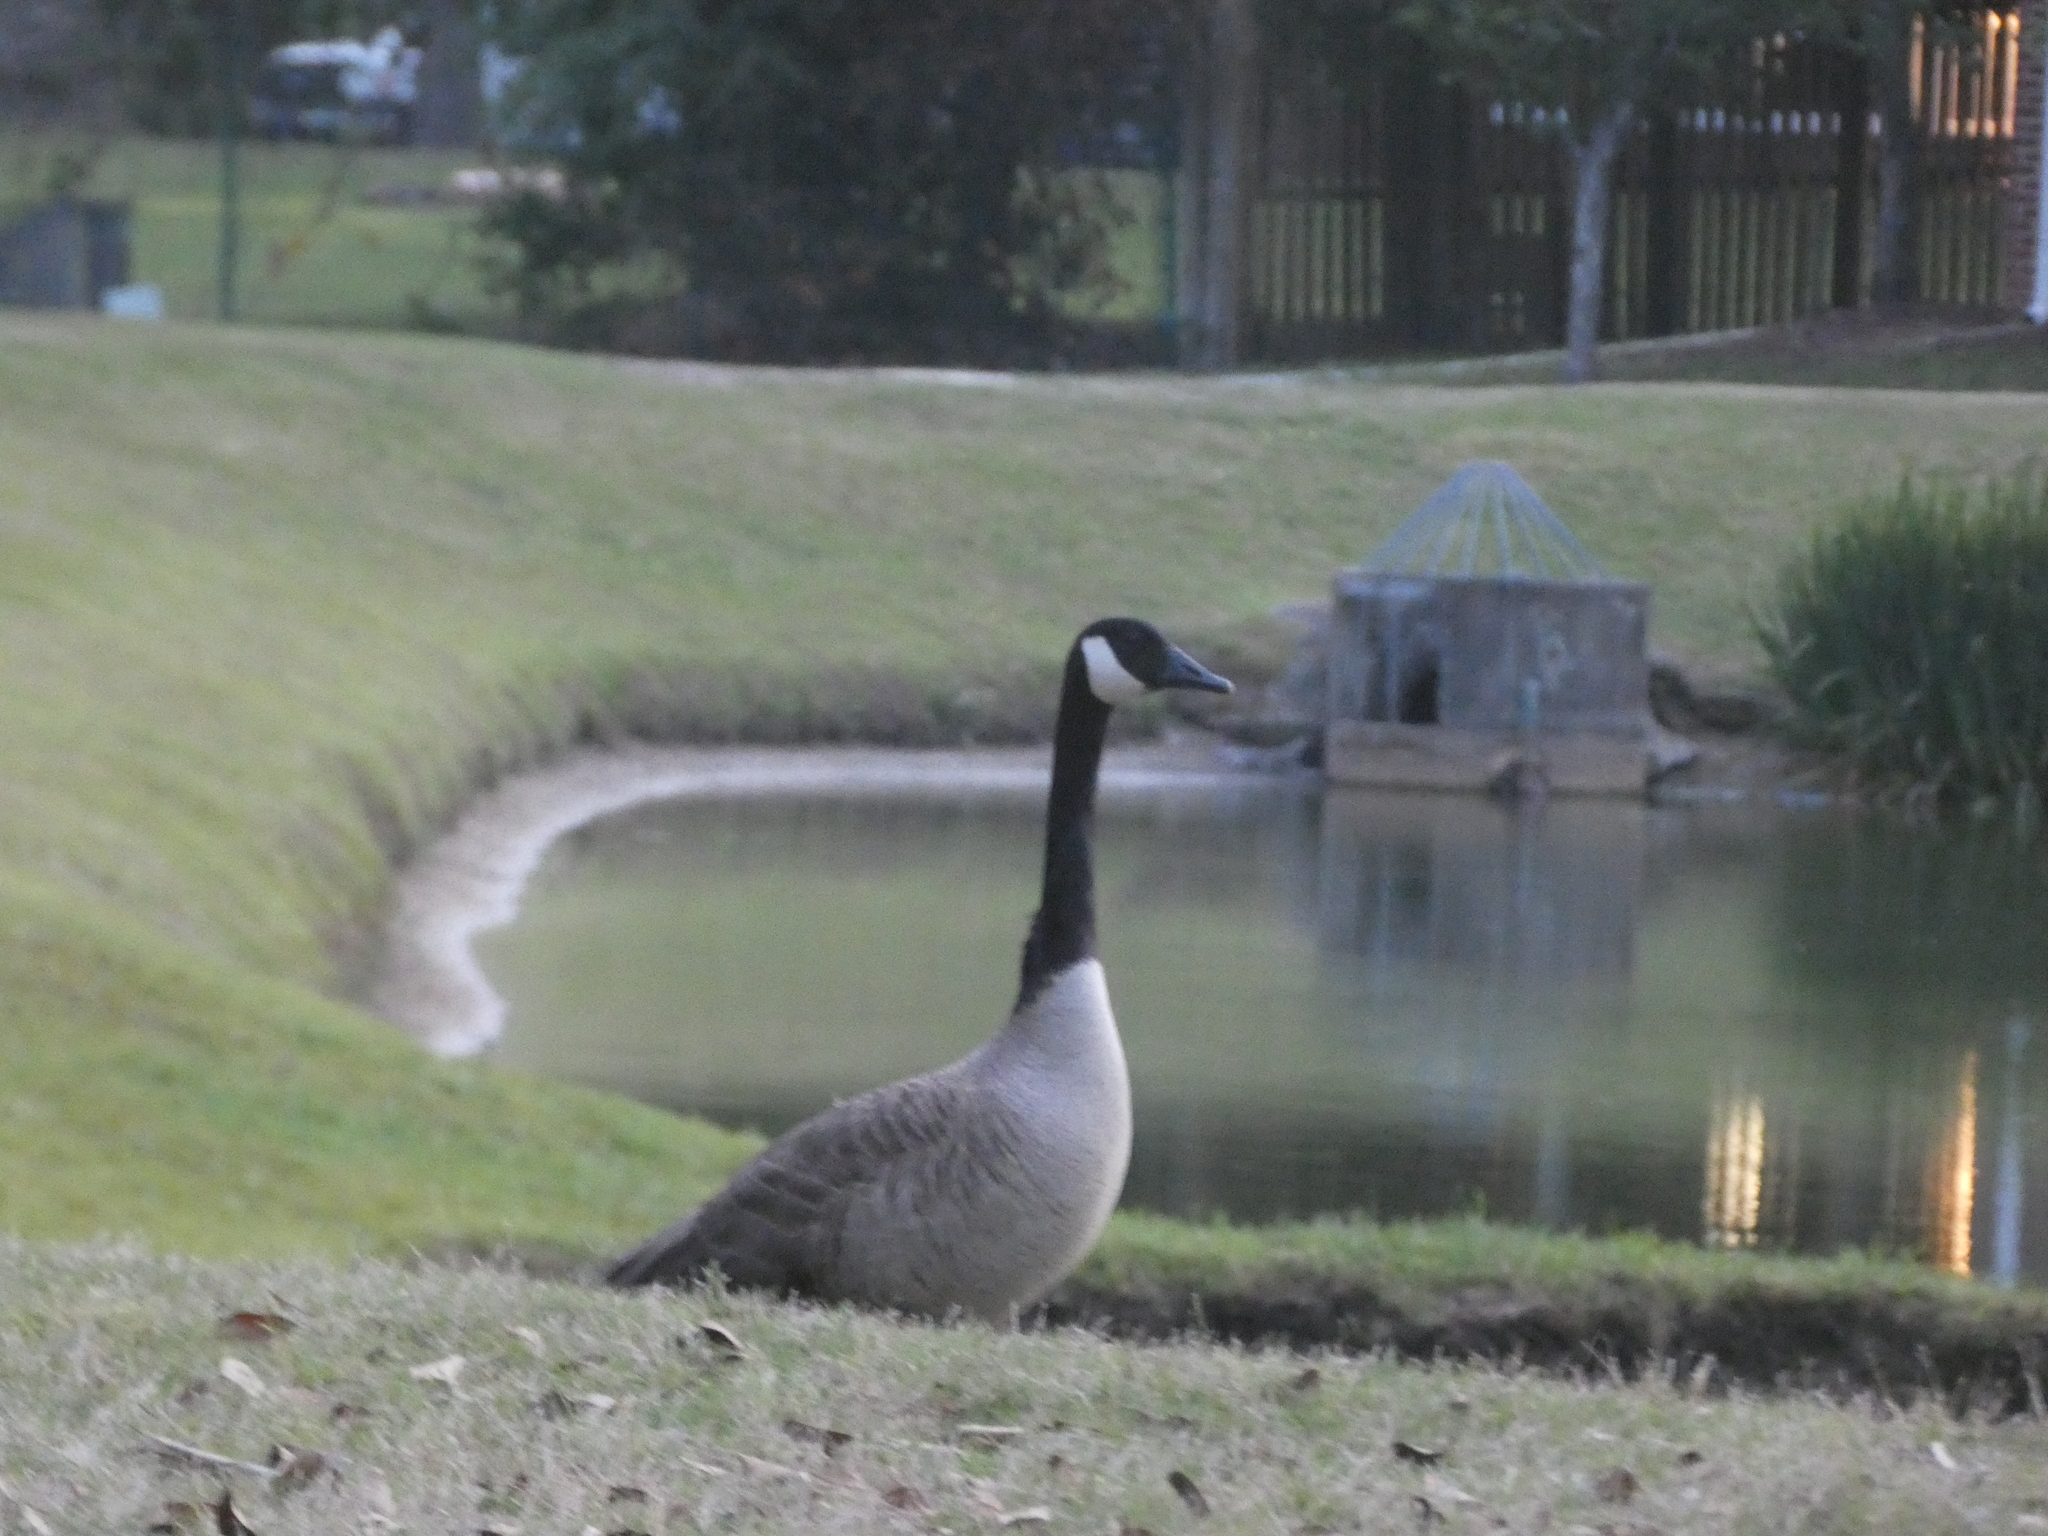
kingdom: Animalia
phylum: Chordata
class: Aves
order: Anseriformes
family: Anatidae
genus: Branta
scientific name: Branta canadensis
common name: Canada goose
